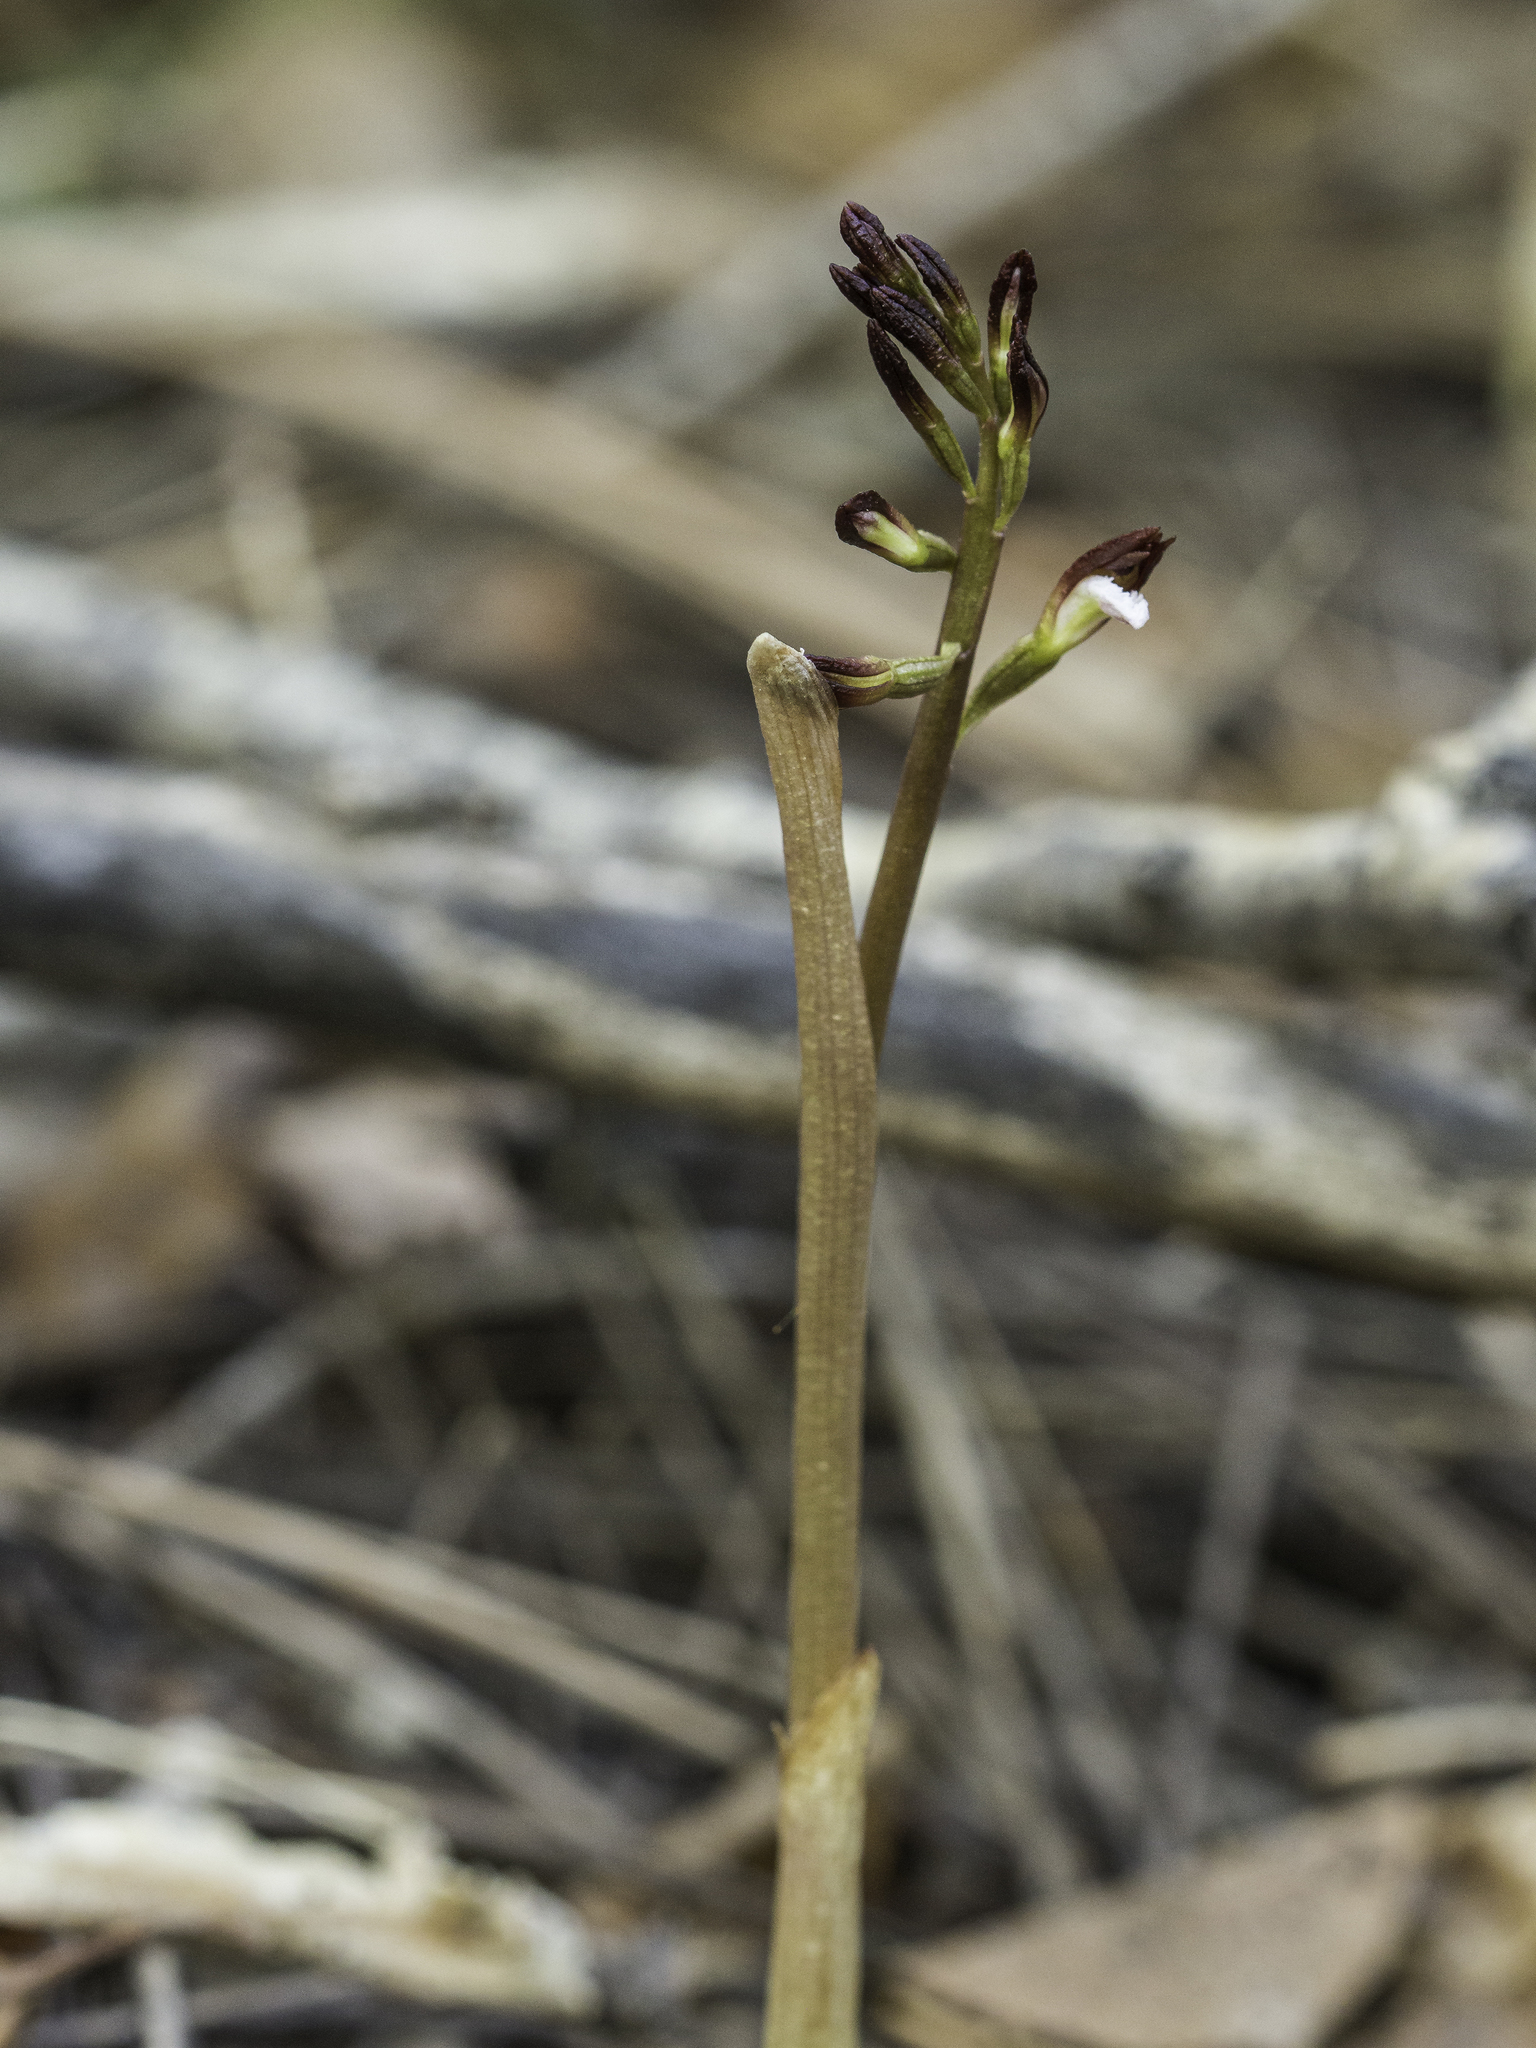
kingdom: Plantae
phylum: Tracheophyta
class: Liliopsida
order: Asparagales
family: Orchidaceae
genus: Corallorhiza
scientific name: Corallorhiza wisteriana
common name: Spring coralroot
